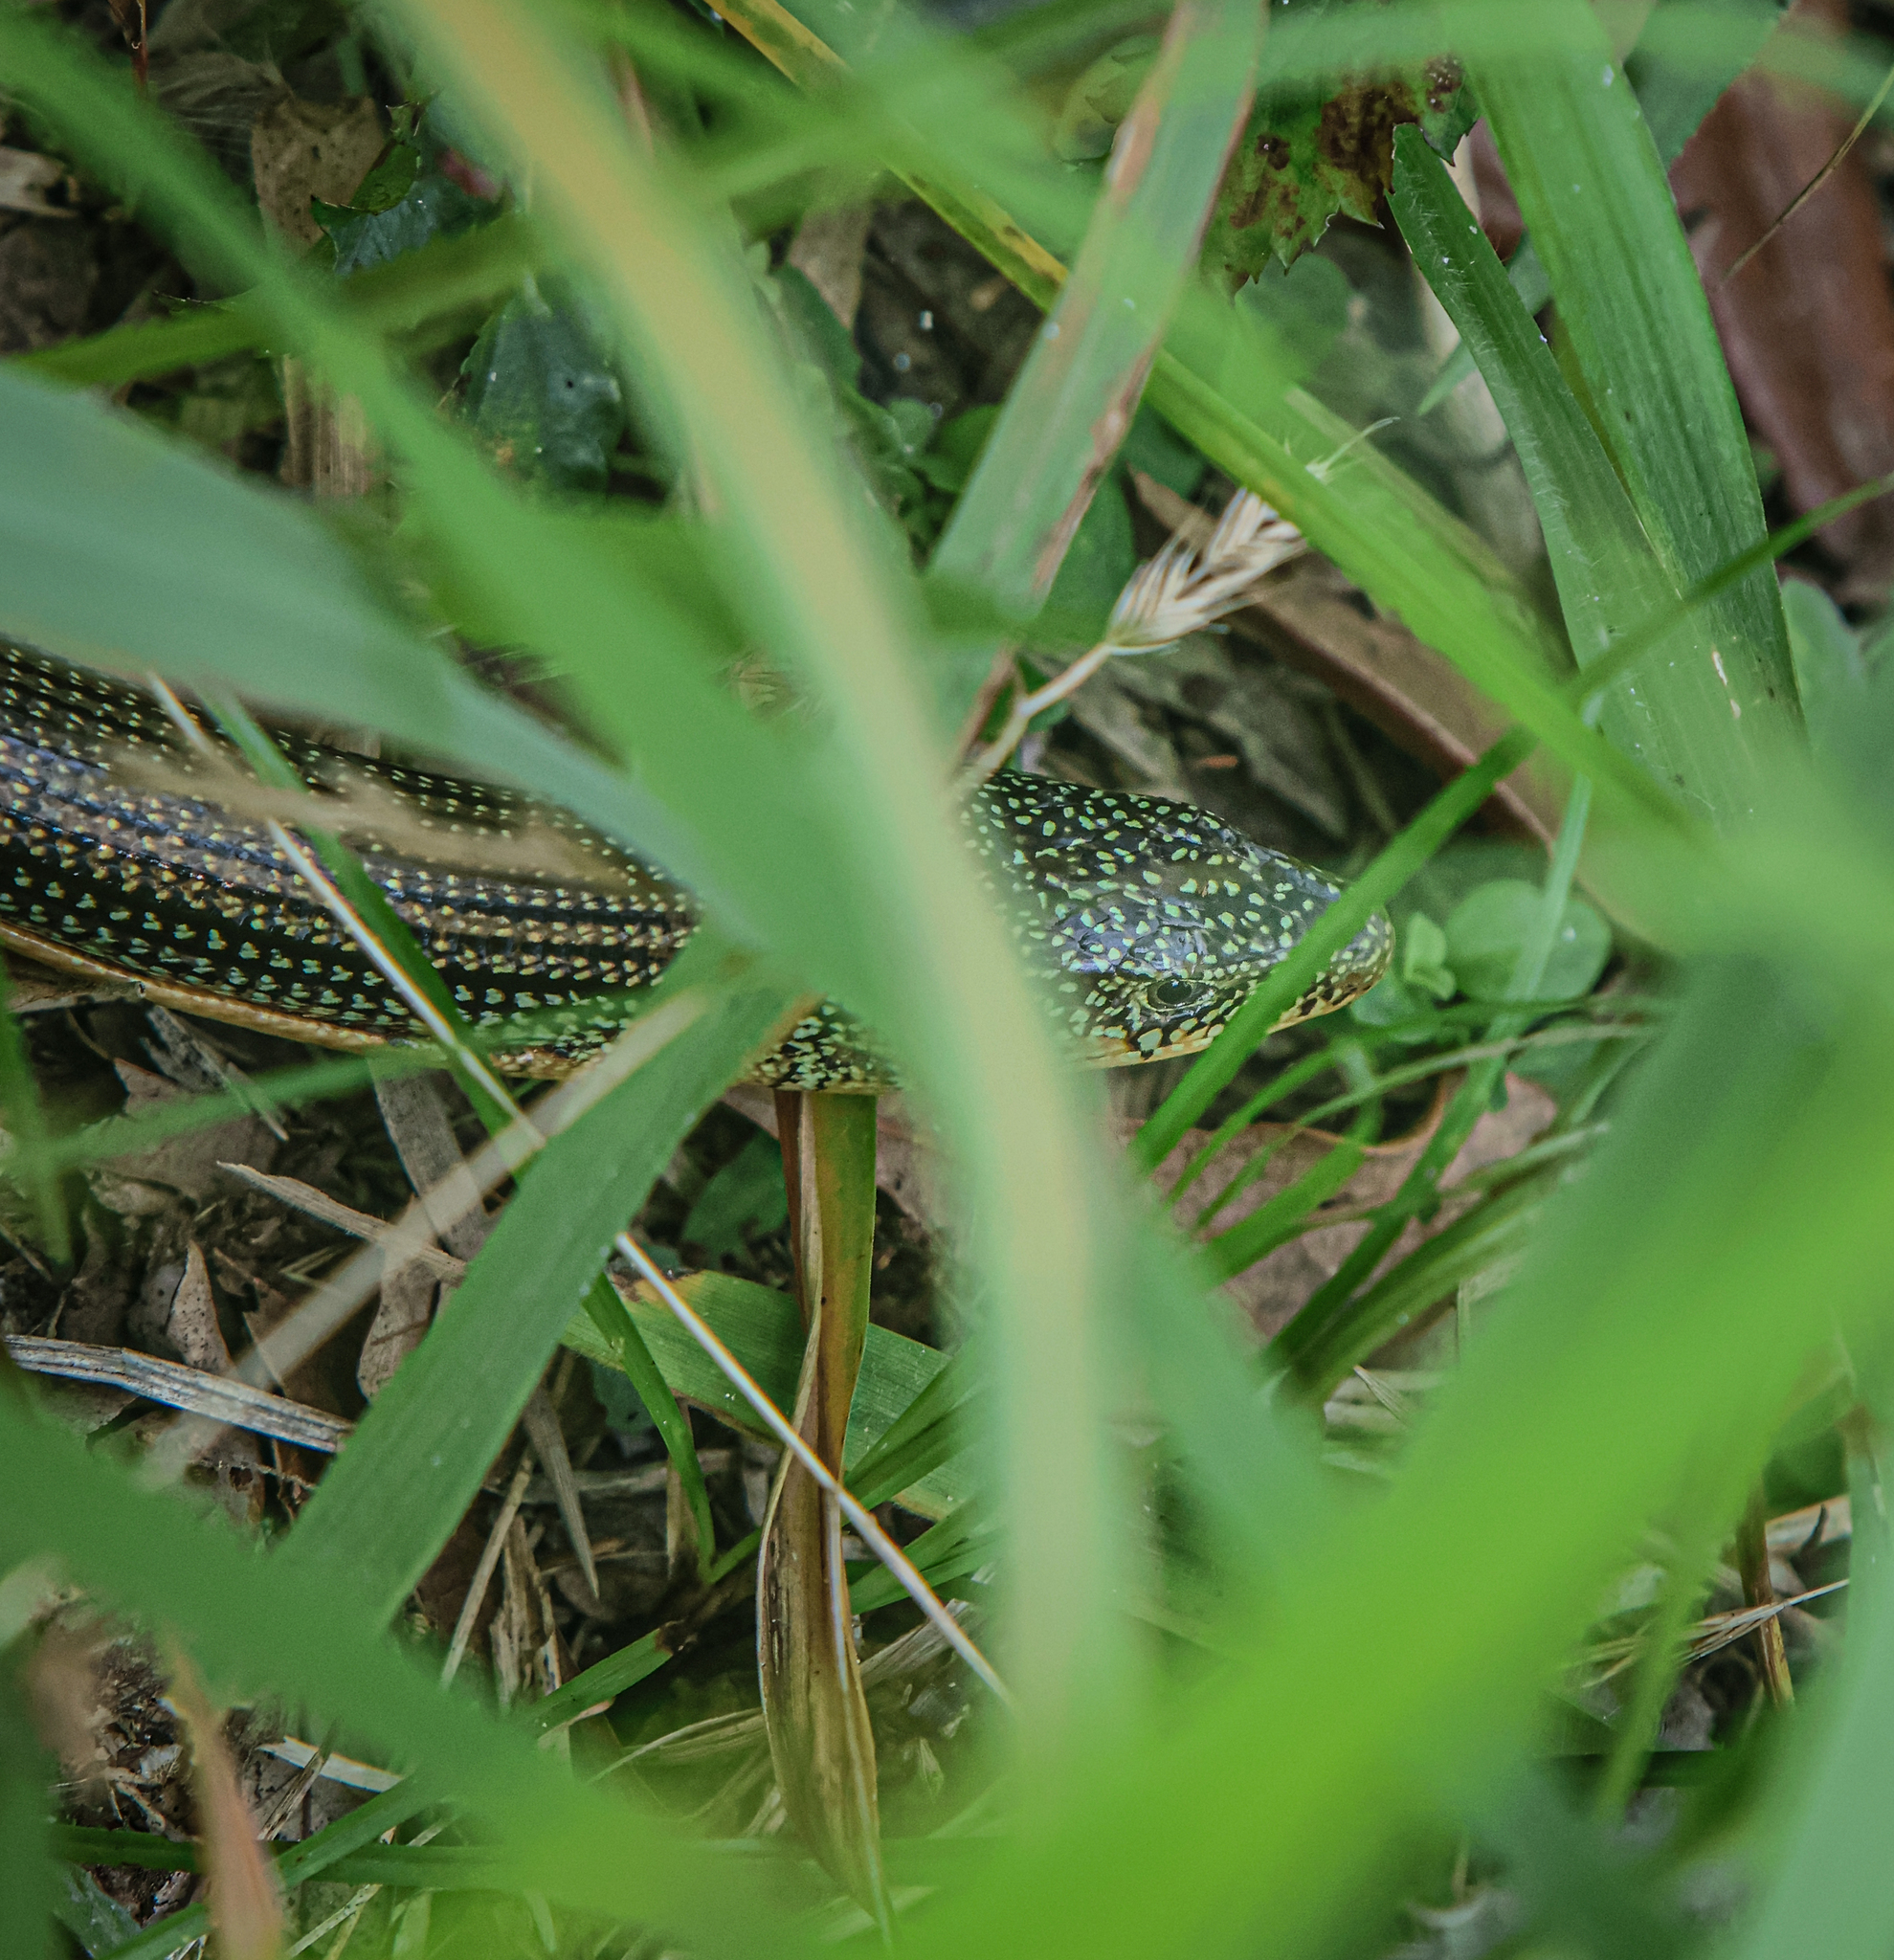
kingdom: Animalia
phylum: Chordata
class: Squamata
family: Anguidae
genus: Ophisaurus
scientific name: Ophisaurus ventralis
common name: Eastern glass lizard
